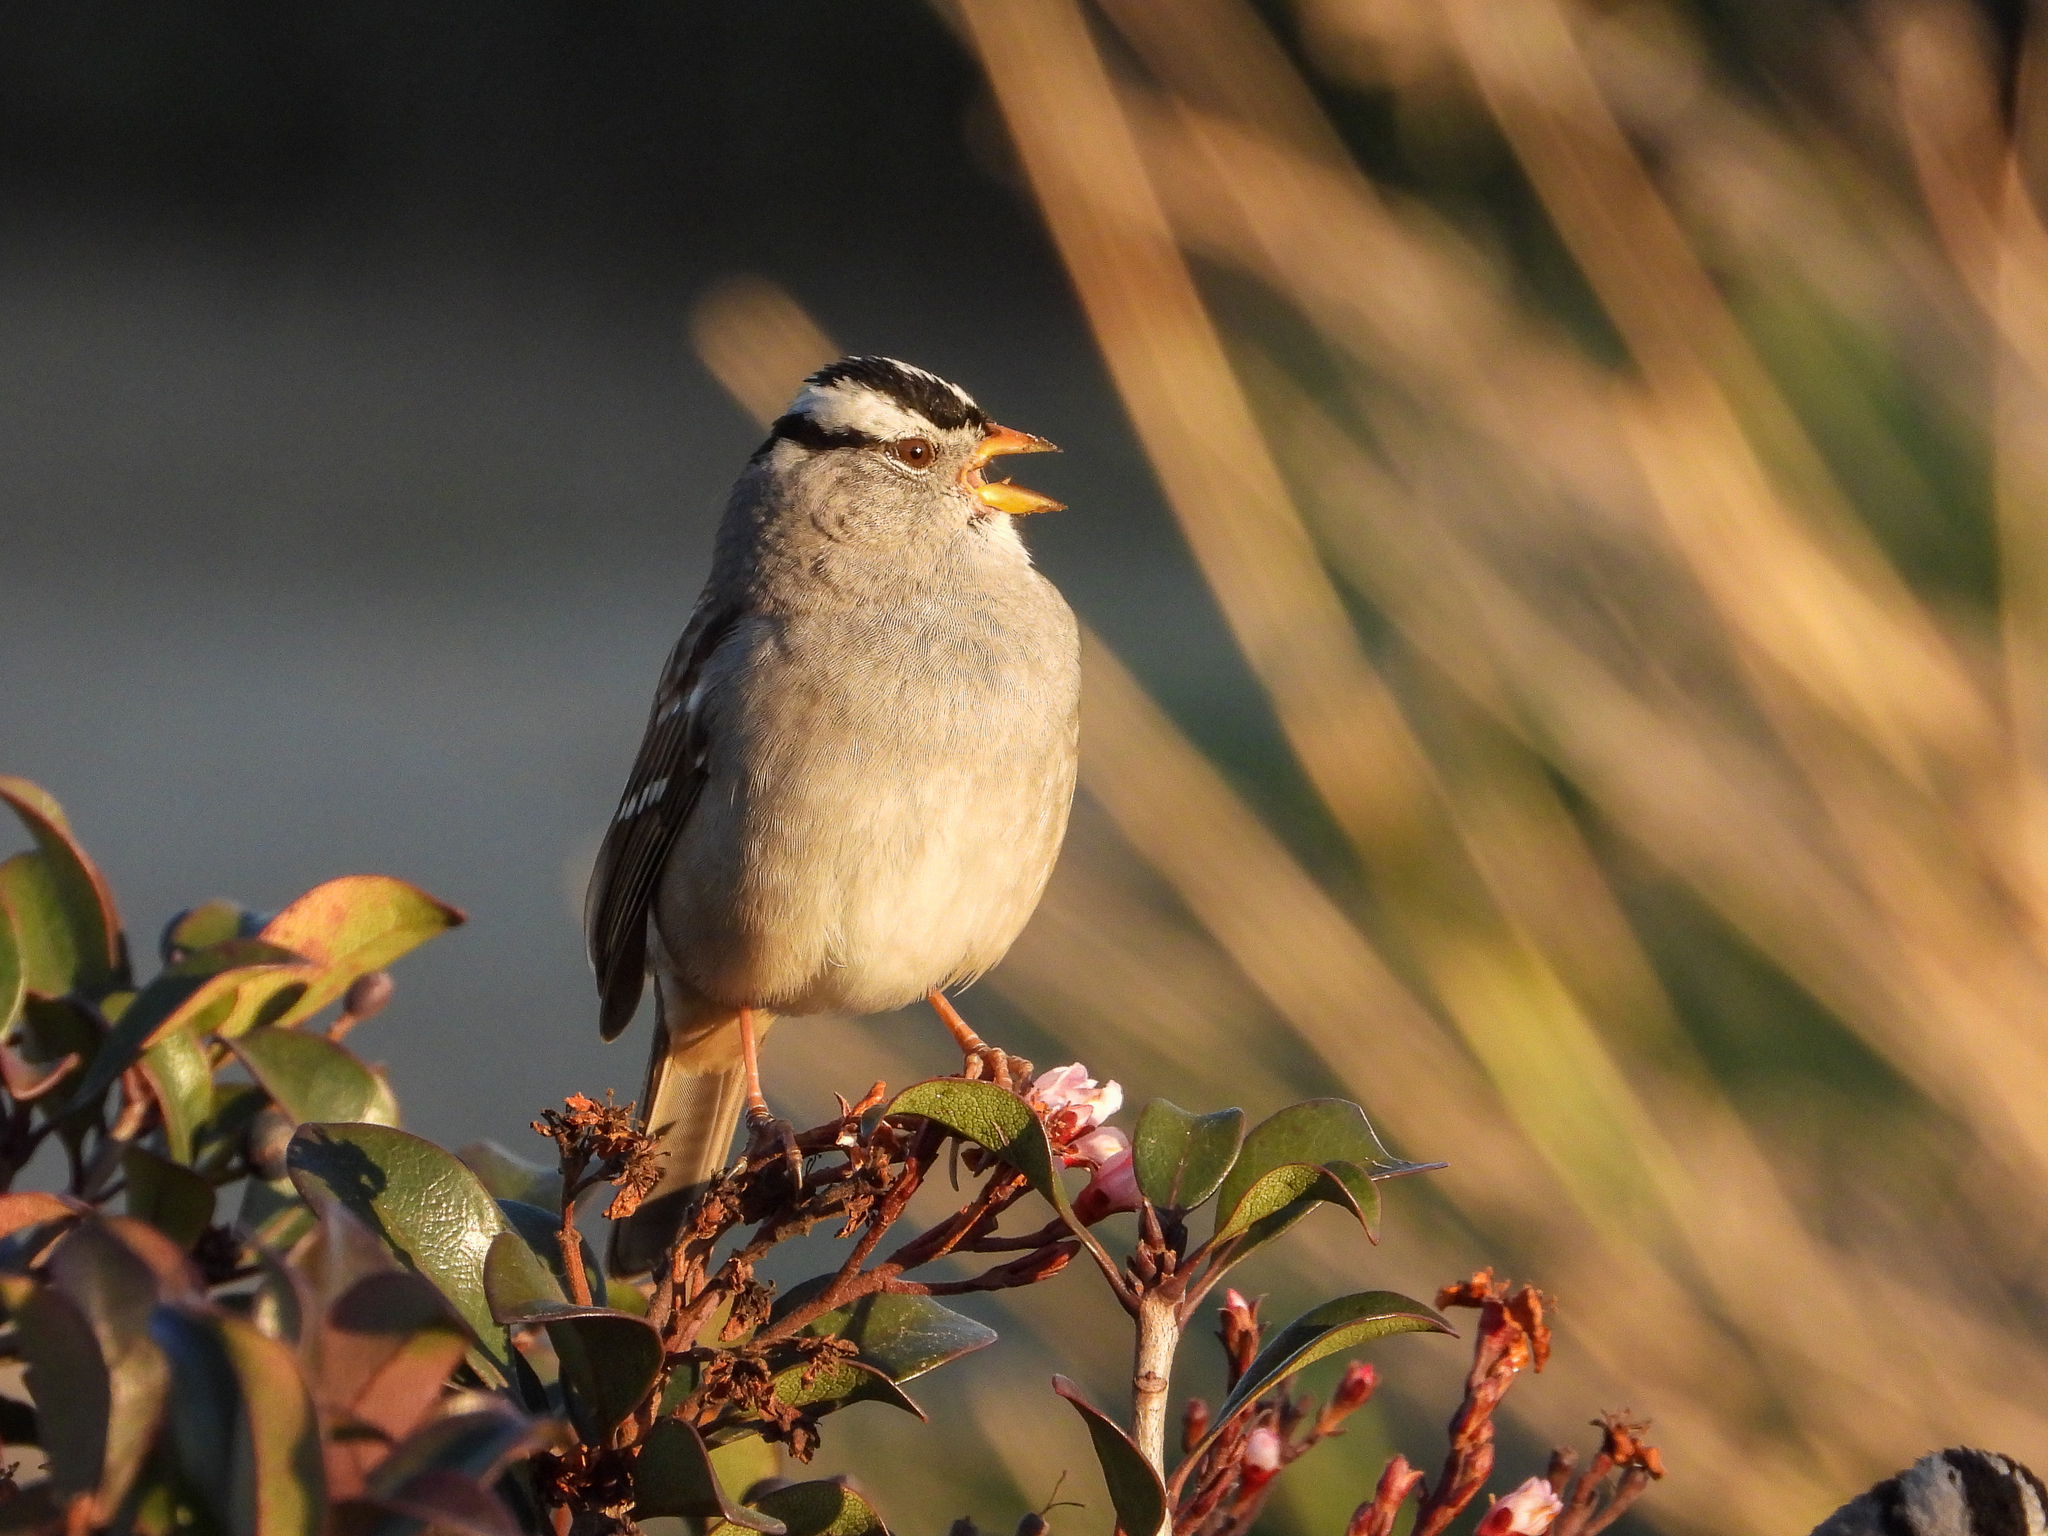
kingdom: Animalia
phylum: Chordata
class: Aves
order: Passeriformes
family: Passerellidae
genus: Zonotrichia
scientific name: Zonotrichia leucophrys
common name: White-crowned sparrow
